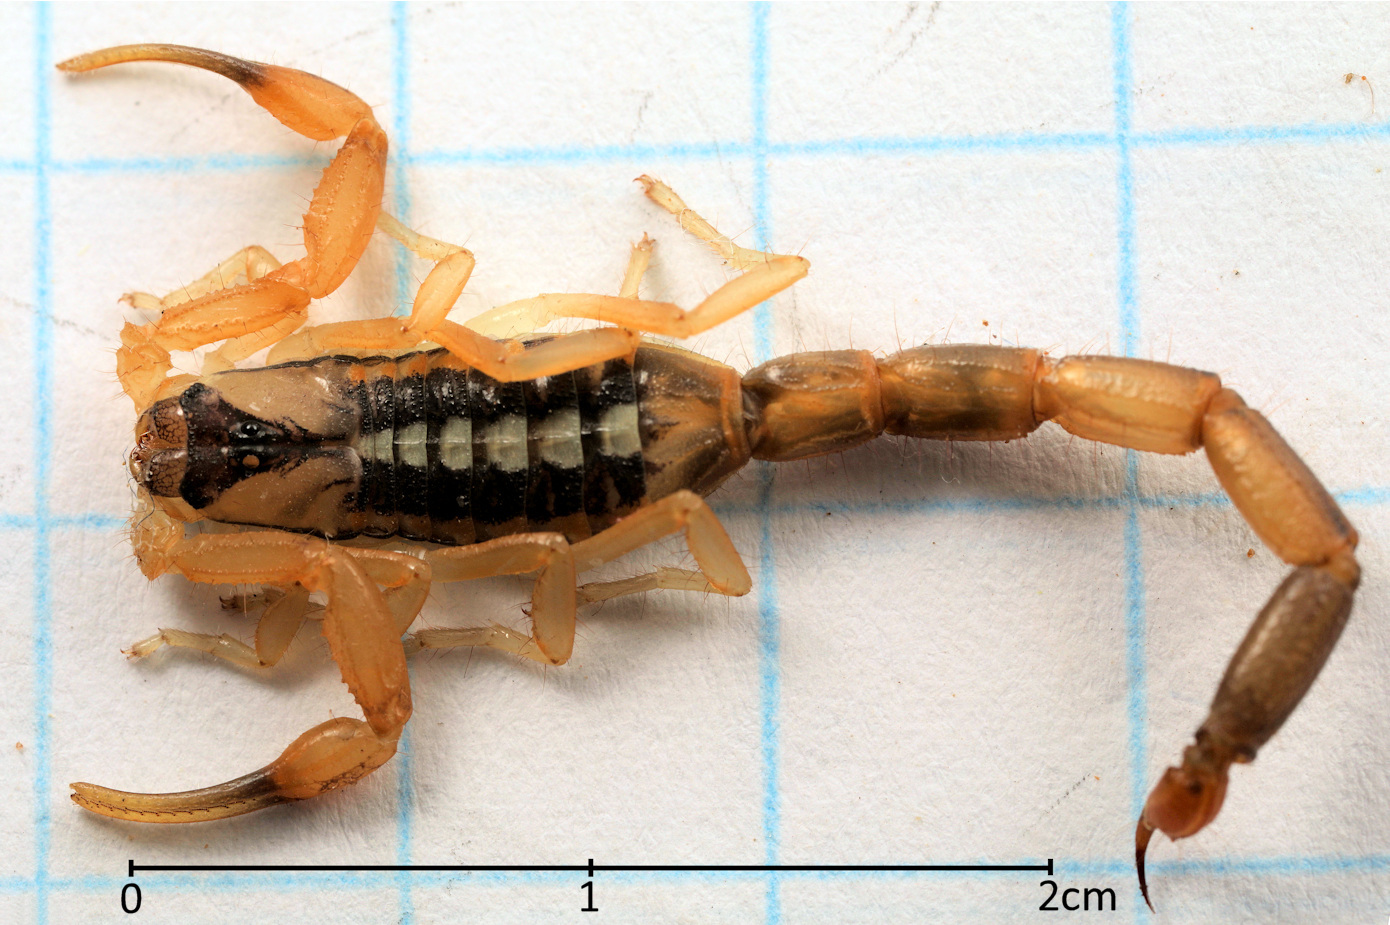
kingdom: Animalia
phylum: Arthropoda
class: Arachnida
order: Scorpiones
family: Buthidae
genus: Uroplectes
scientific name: Uroplectes vittatus
